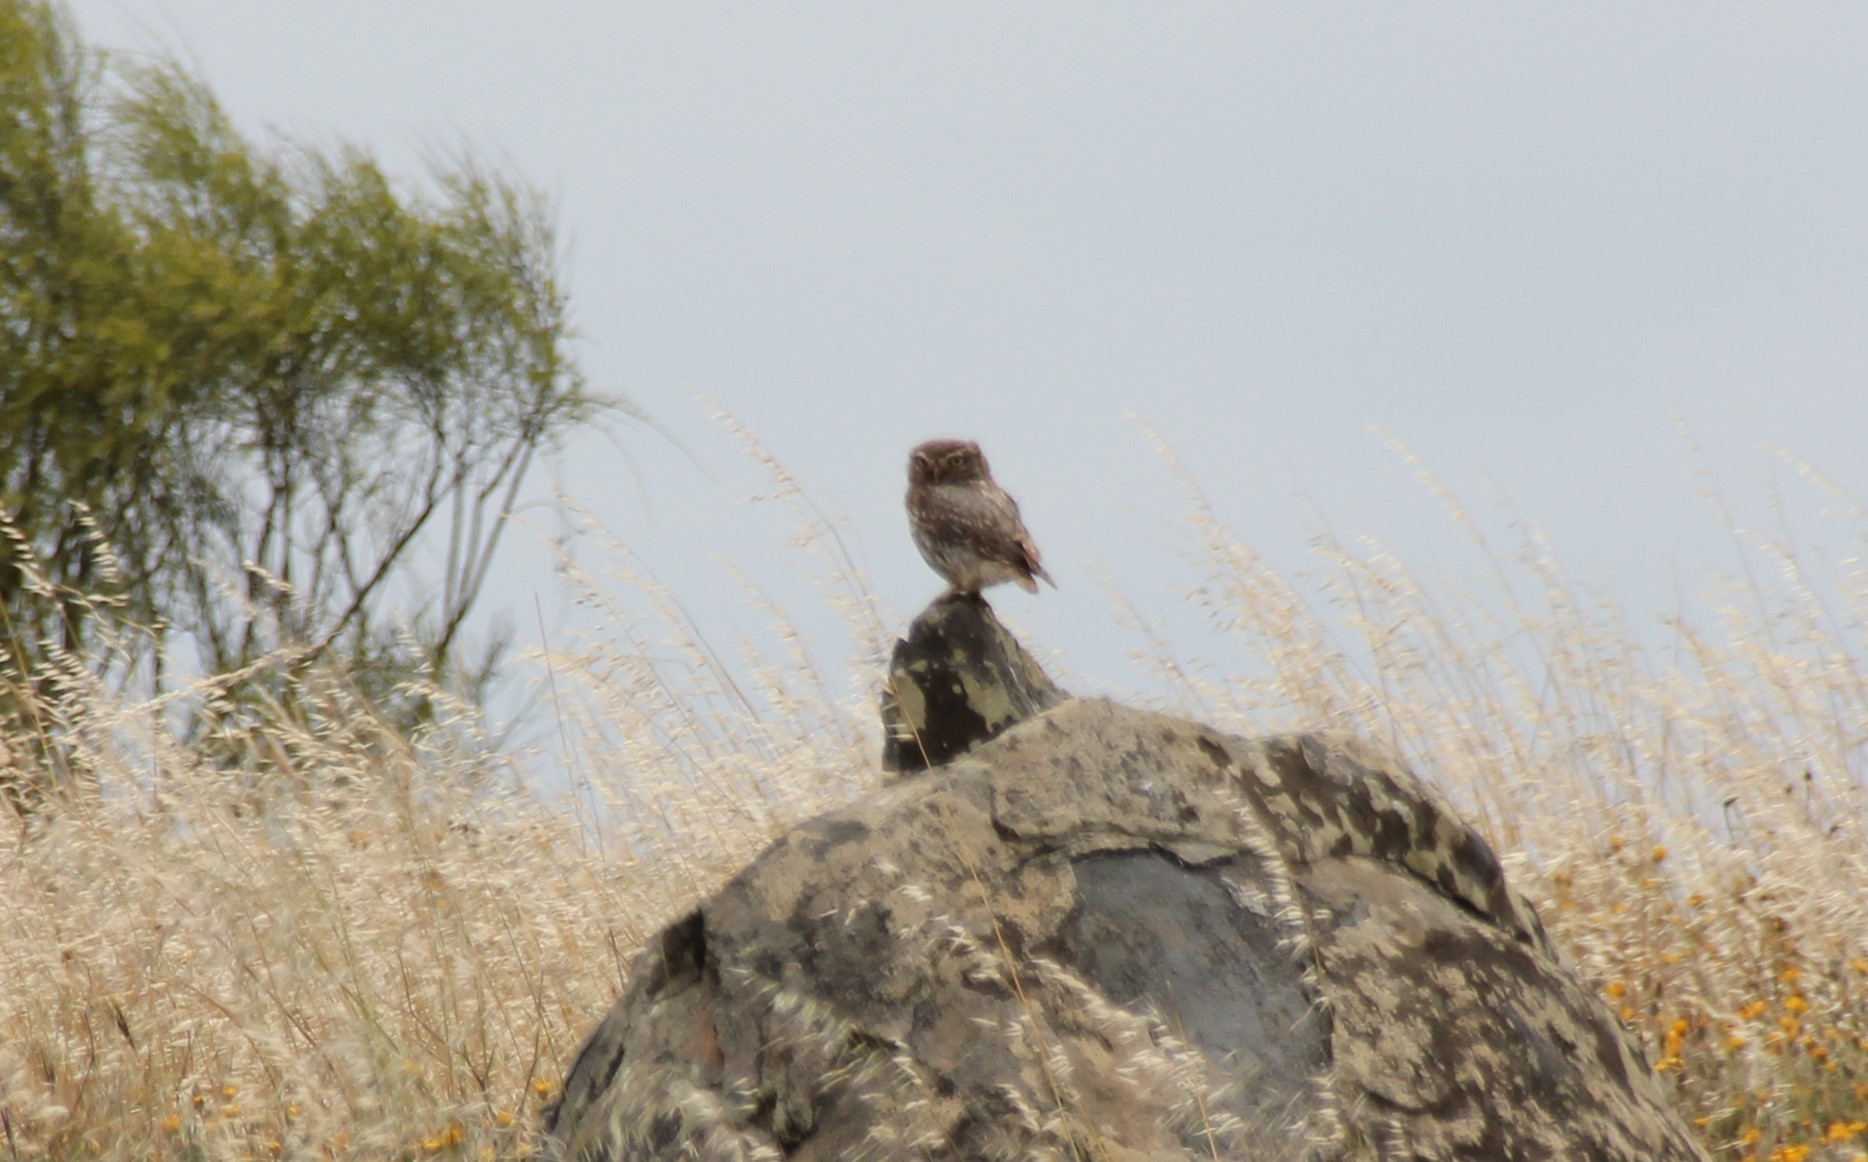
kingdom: Animalia
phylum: Chordata
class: Aves
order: Strigiformes
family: Strigidae
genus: Athene
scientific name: Athene noctua
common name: Little owl
